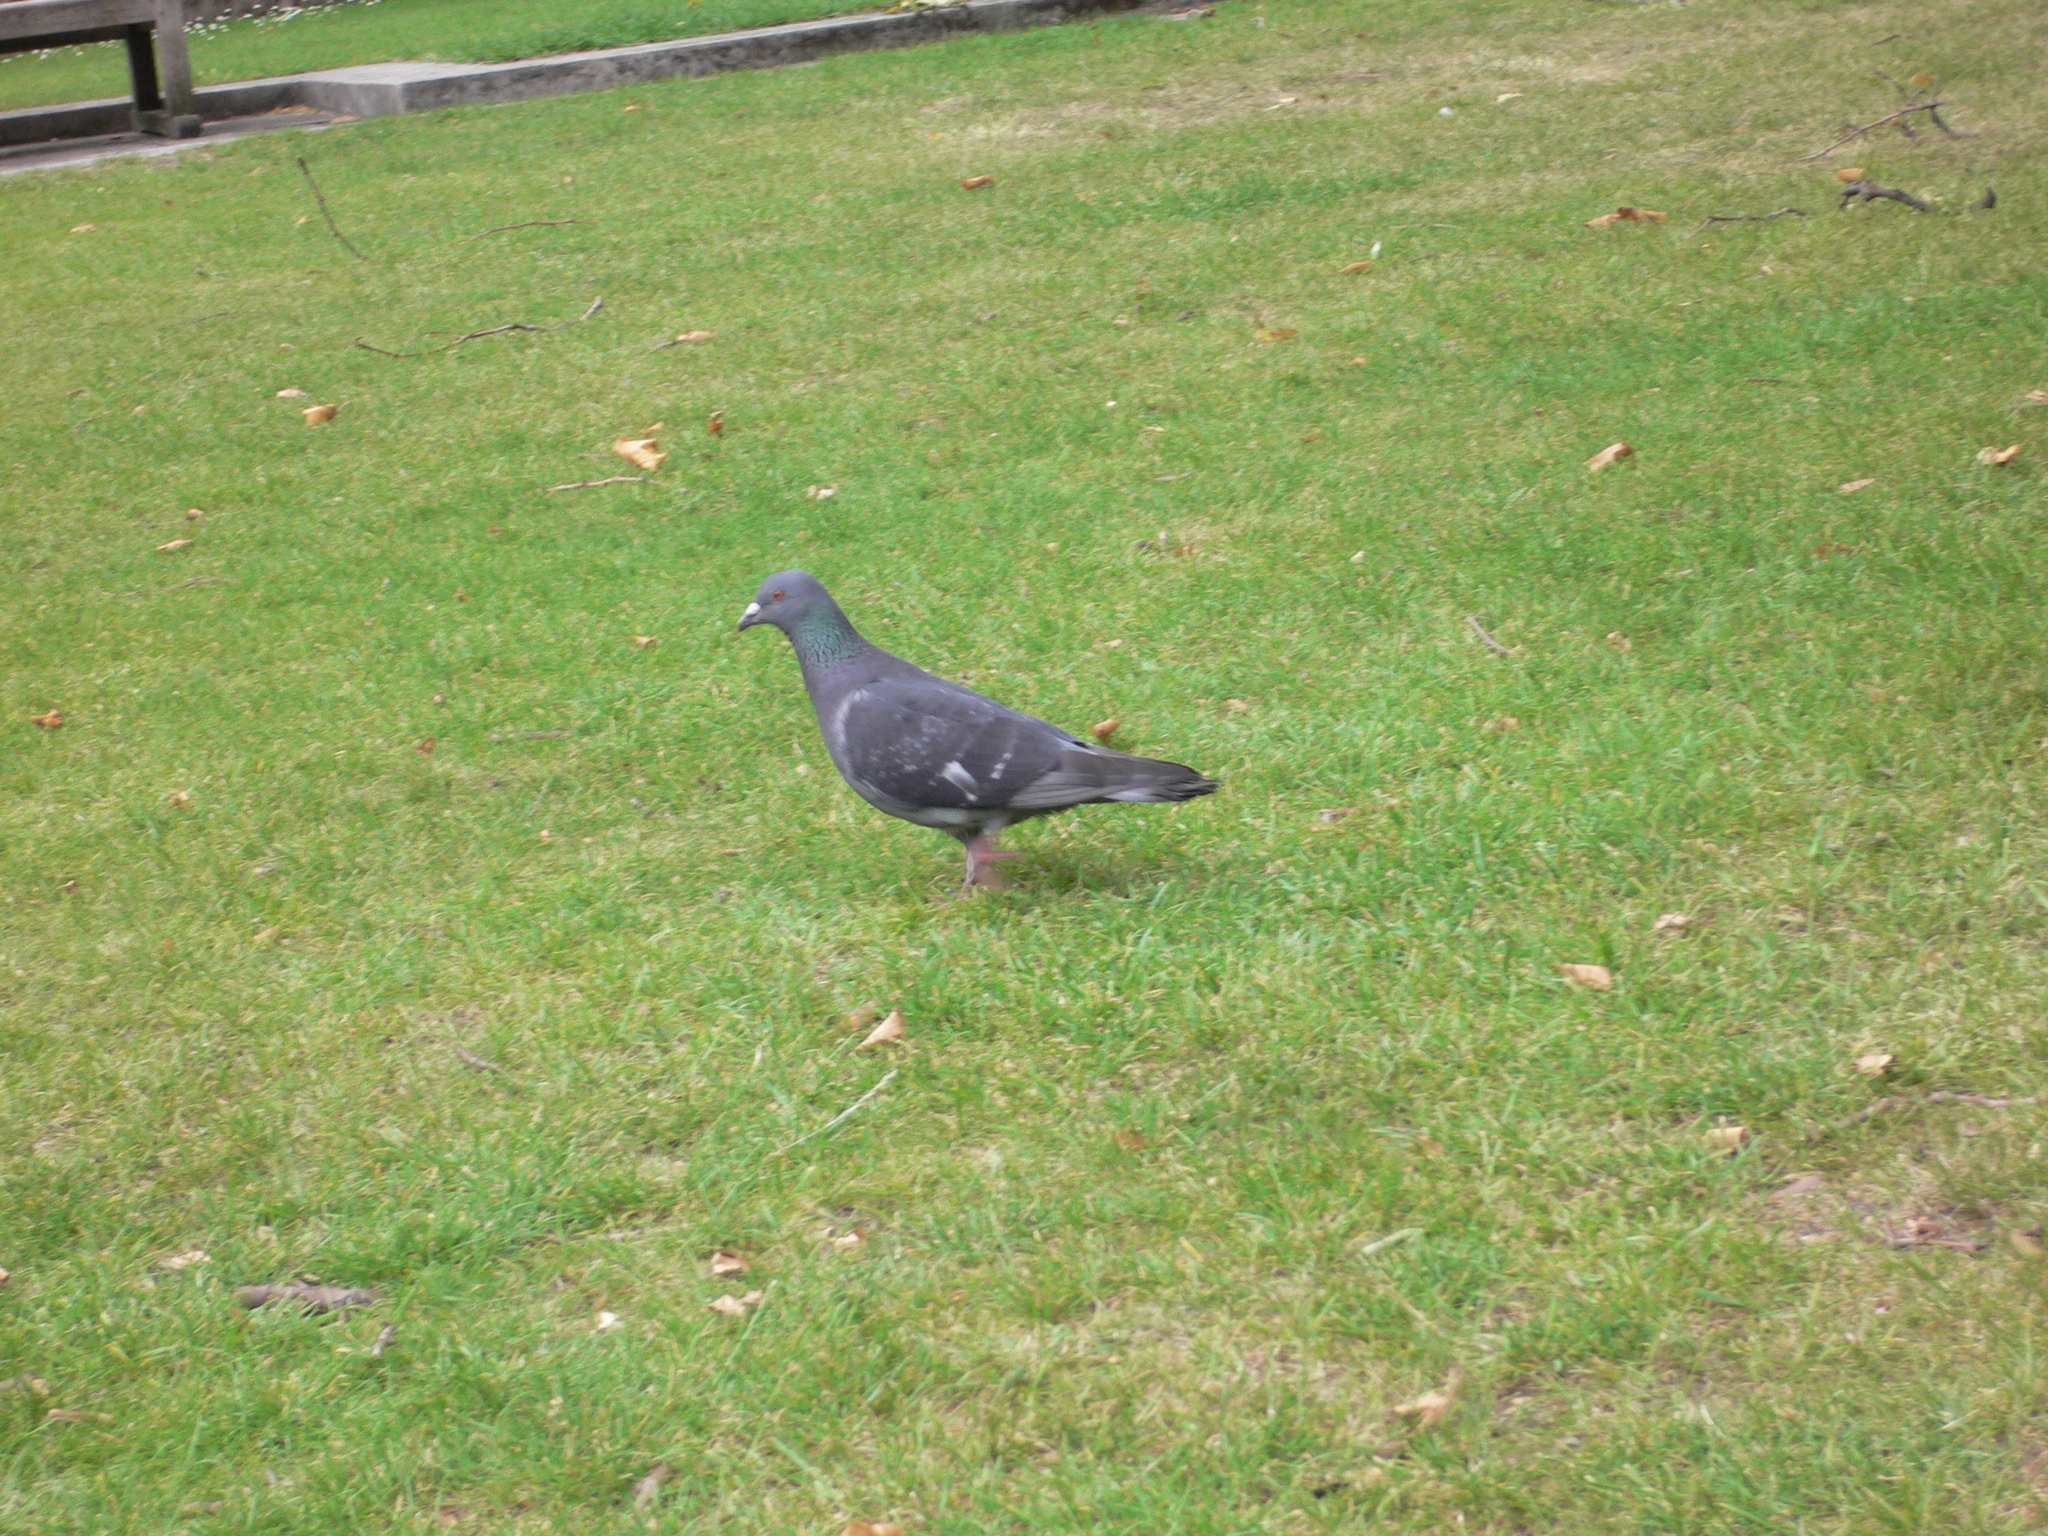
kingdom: Animalia
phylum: Chordata
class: Aves
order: Columbiformes
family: Columbidae
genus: Columba
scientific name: Columba livia
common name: Rock pigeon
